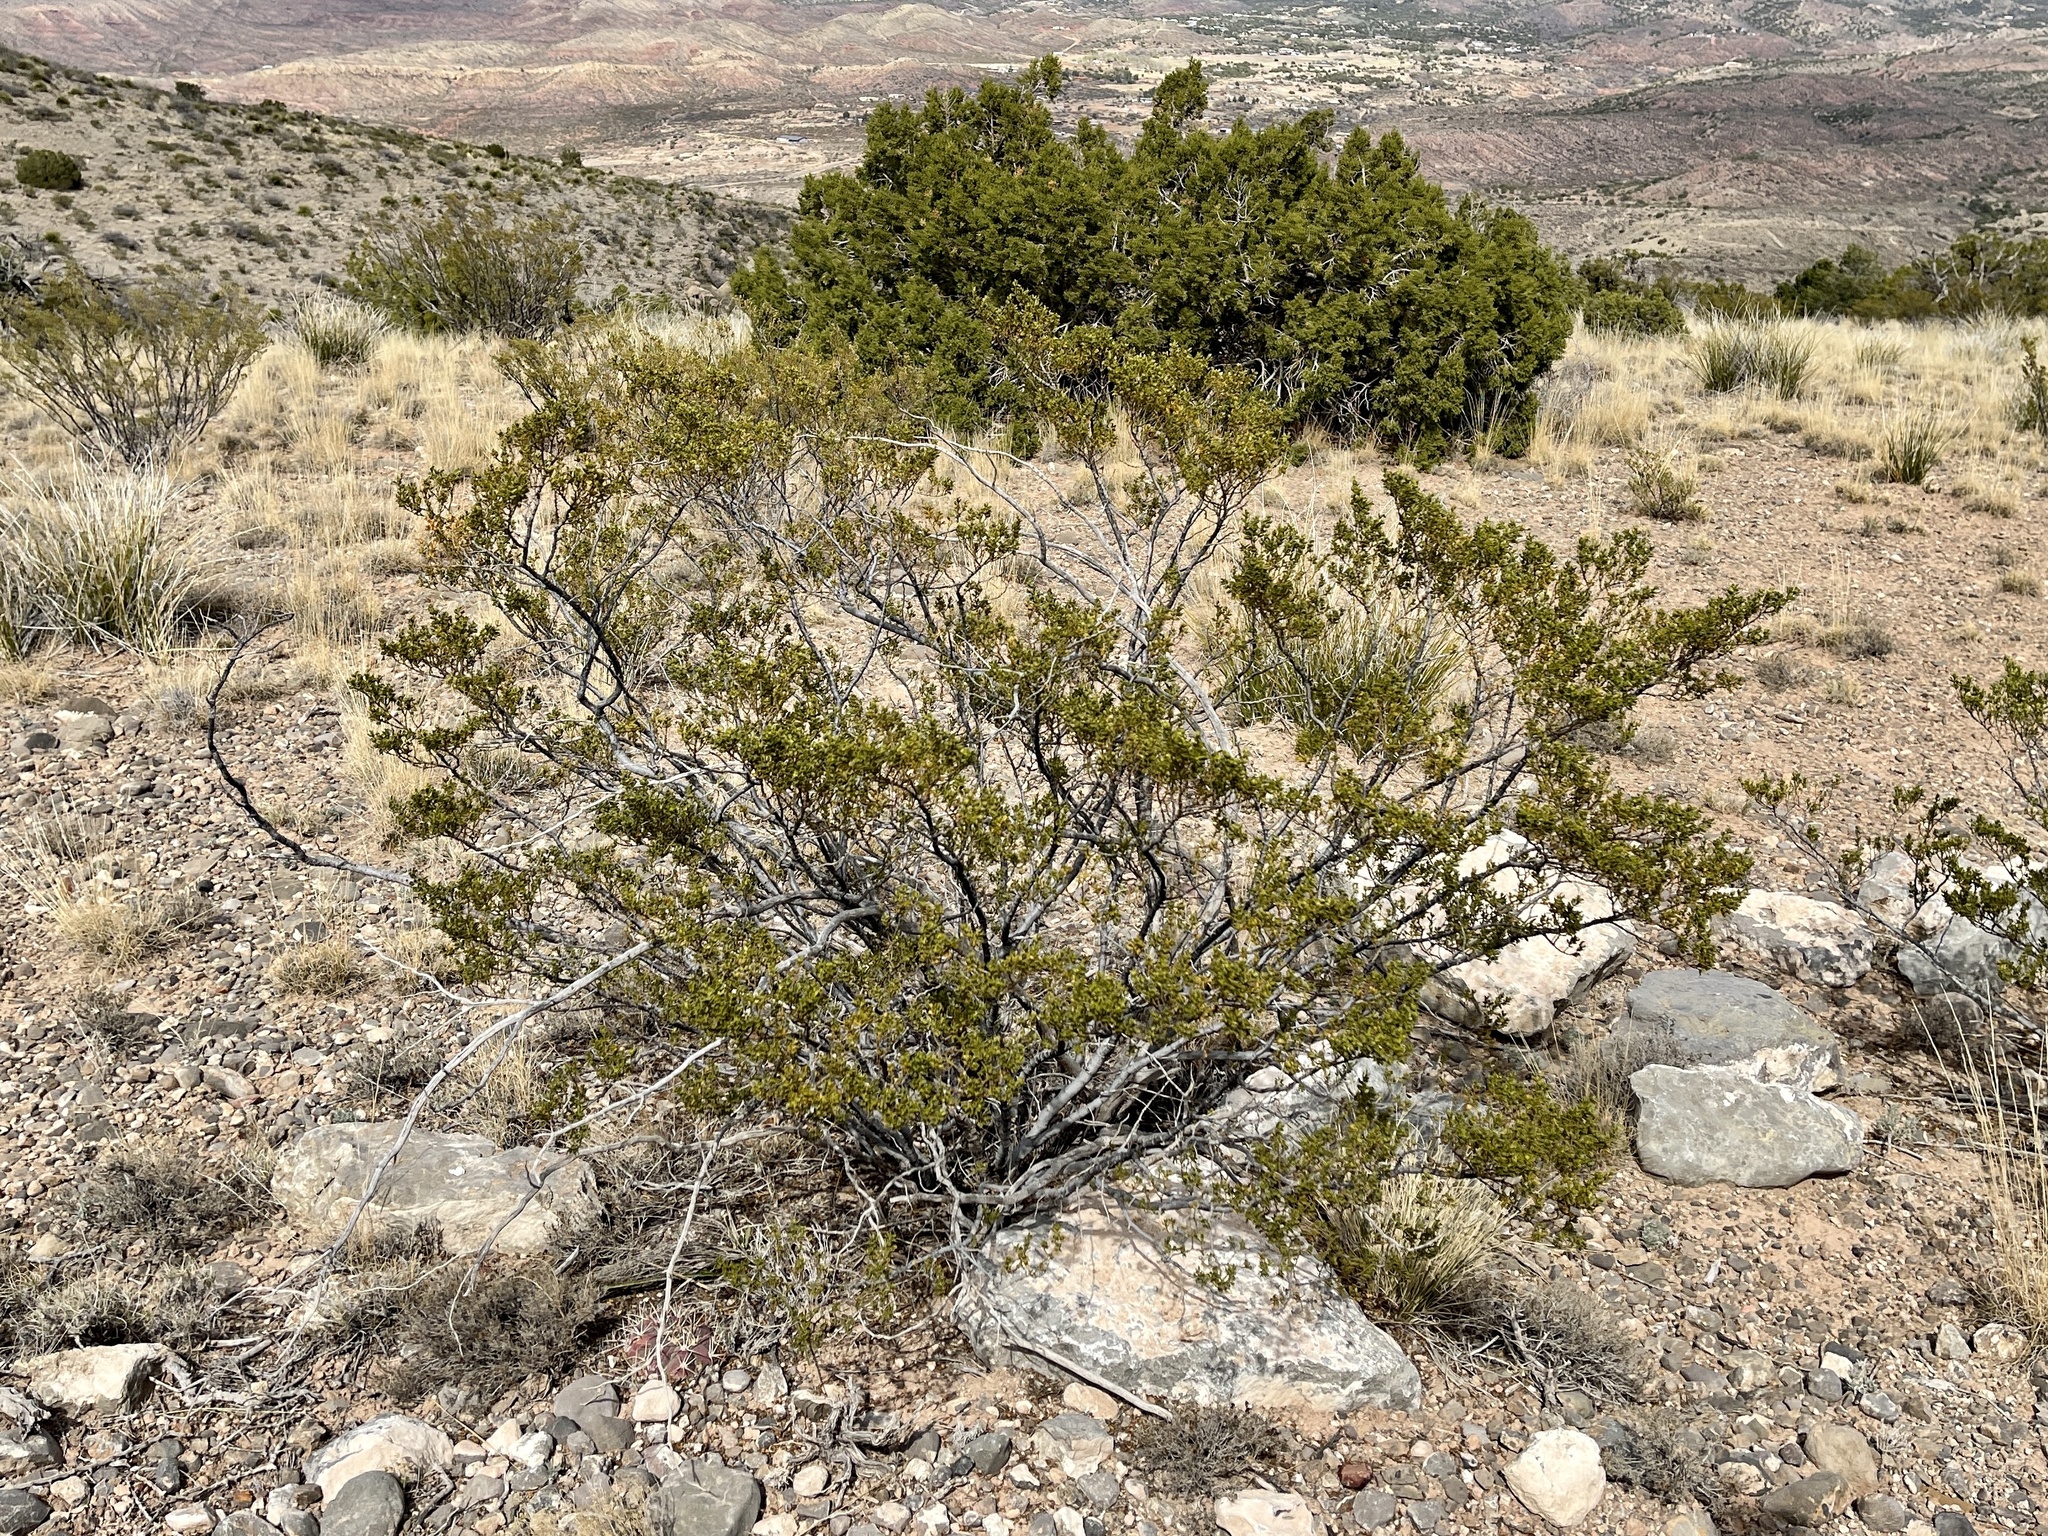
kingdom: Plantae
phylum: Tracheophyta
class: Magnoliopsida
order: Zygophyllales
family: Zygophyllaceae
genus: Larrea
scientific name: Larrea tridentata
